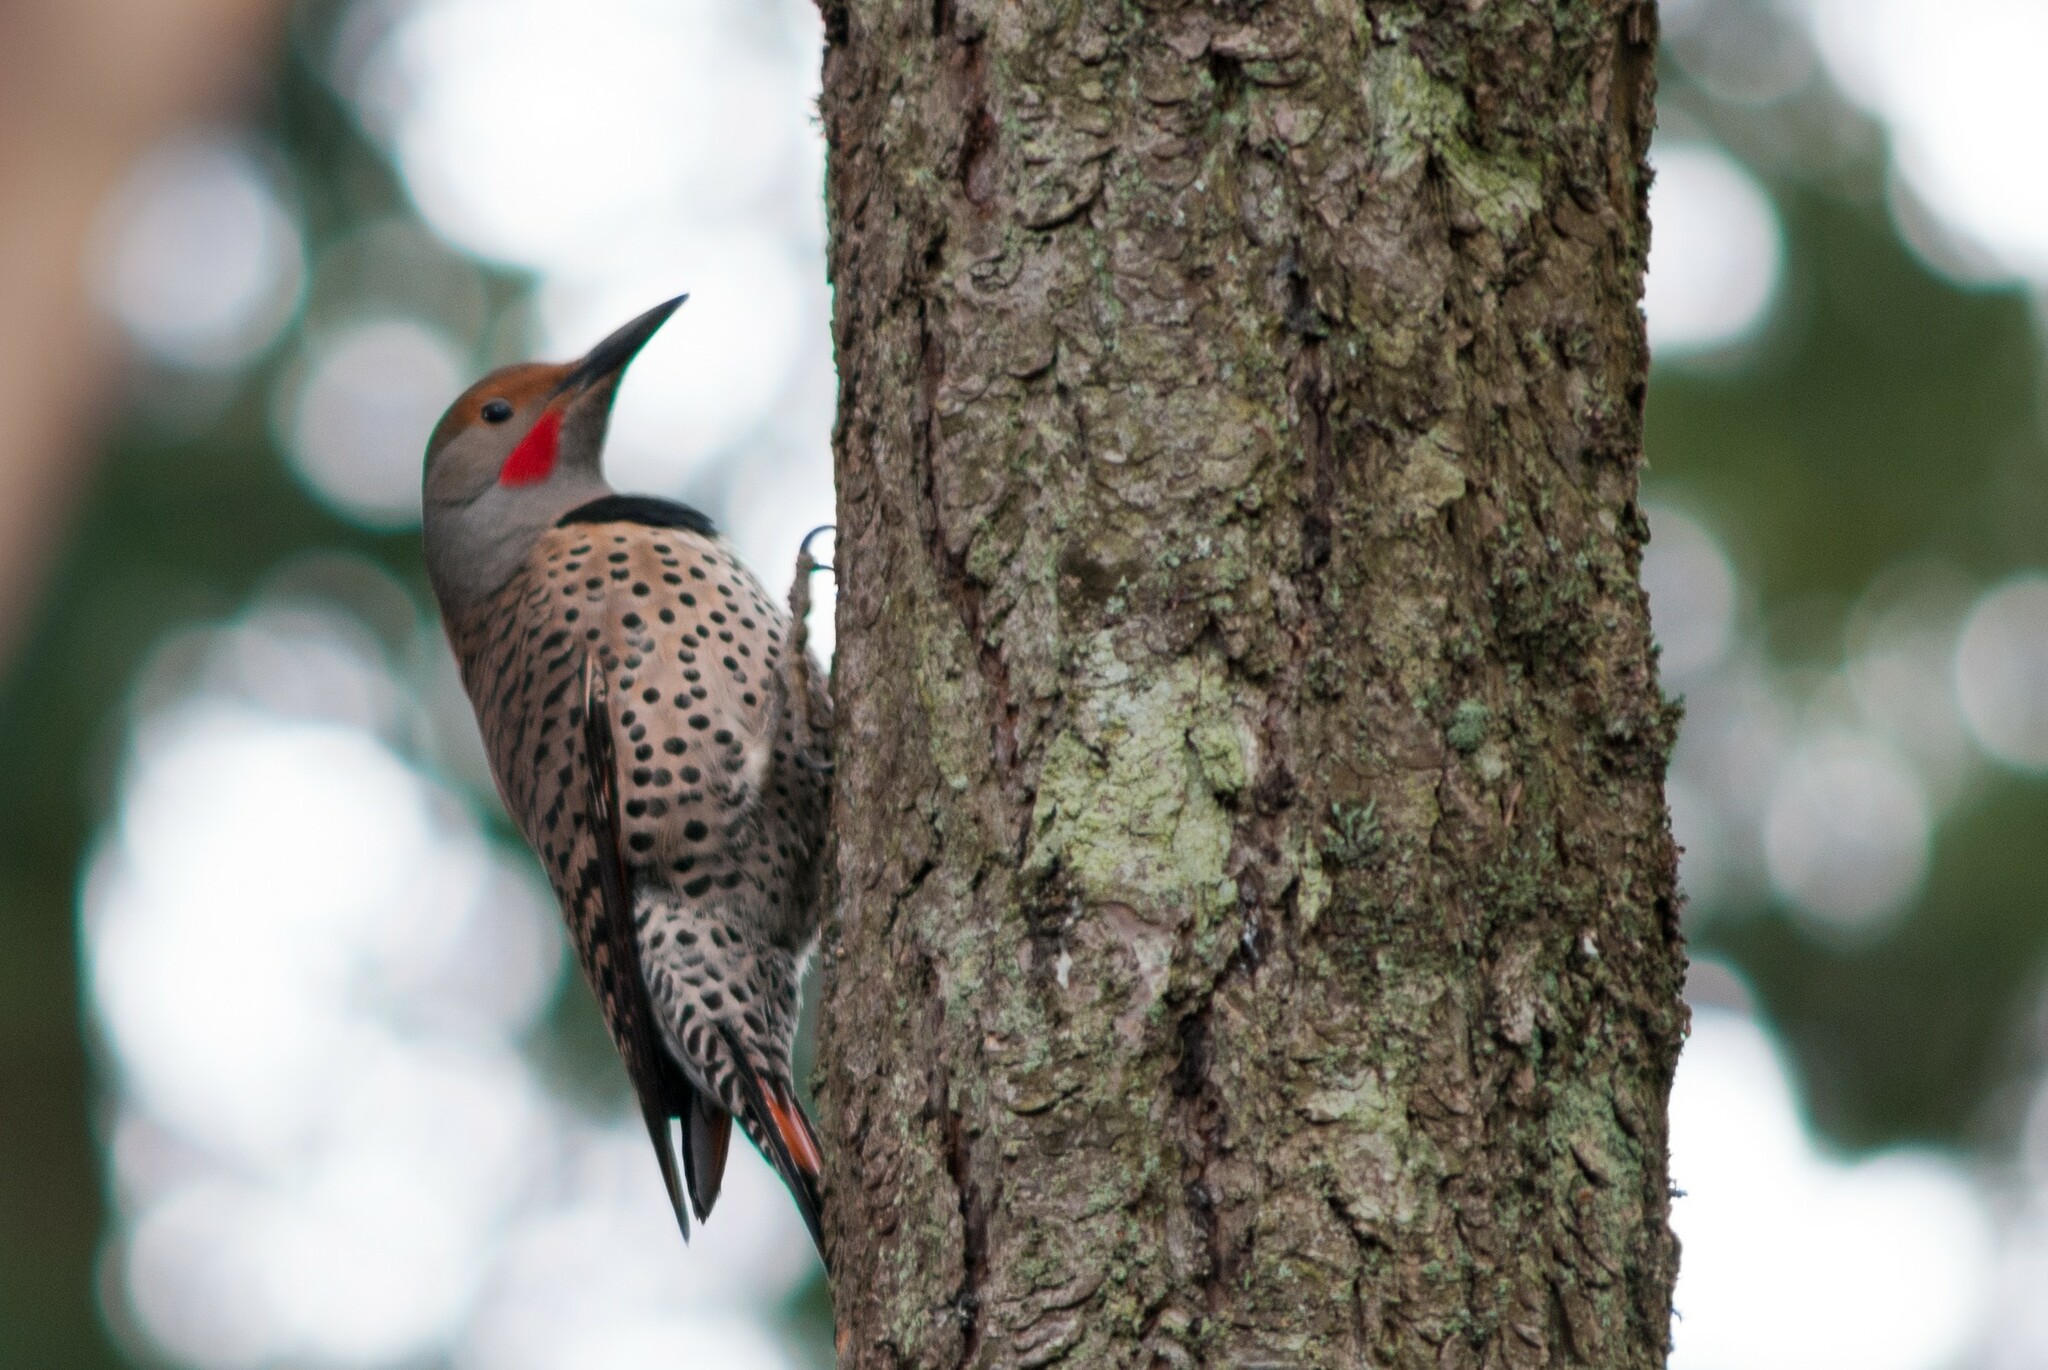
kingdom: Animalia
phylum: Chordata
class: Aves
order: Piciformes
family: Picidae
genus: Colaptes
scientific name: Colaptes auratus
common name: Northern flicker
